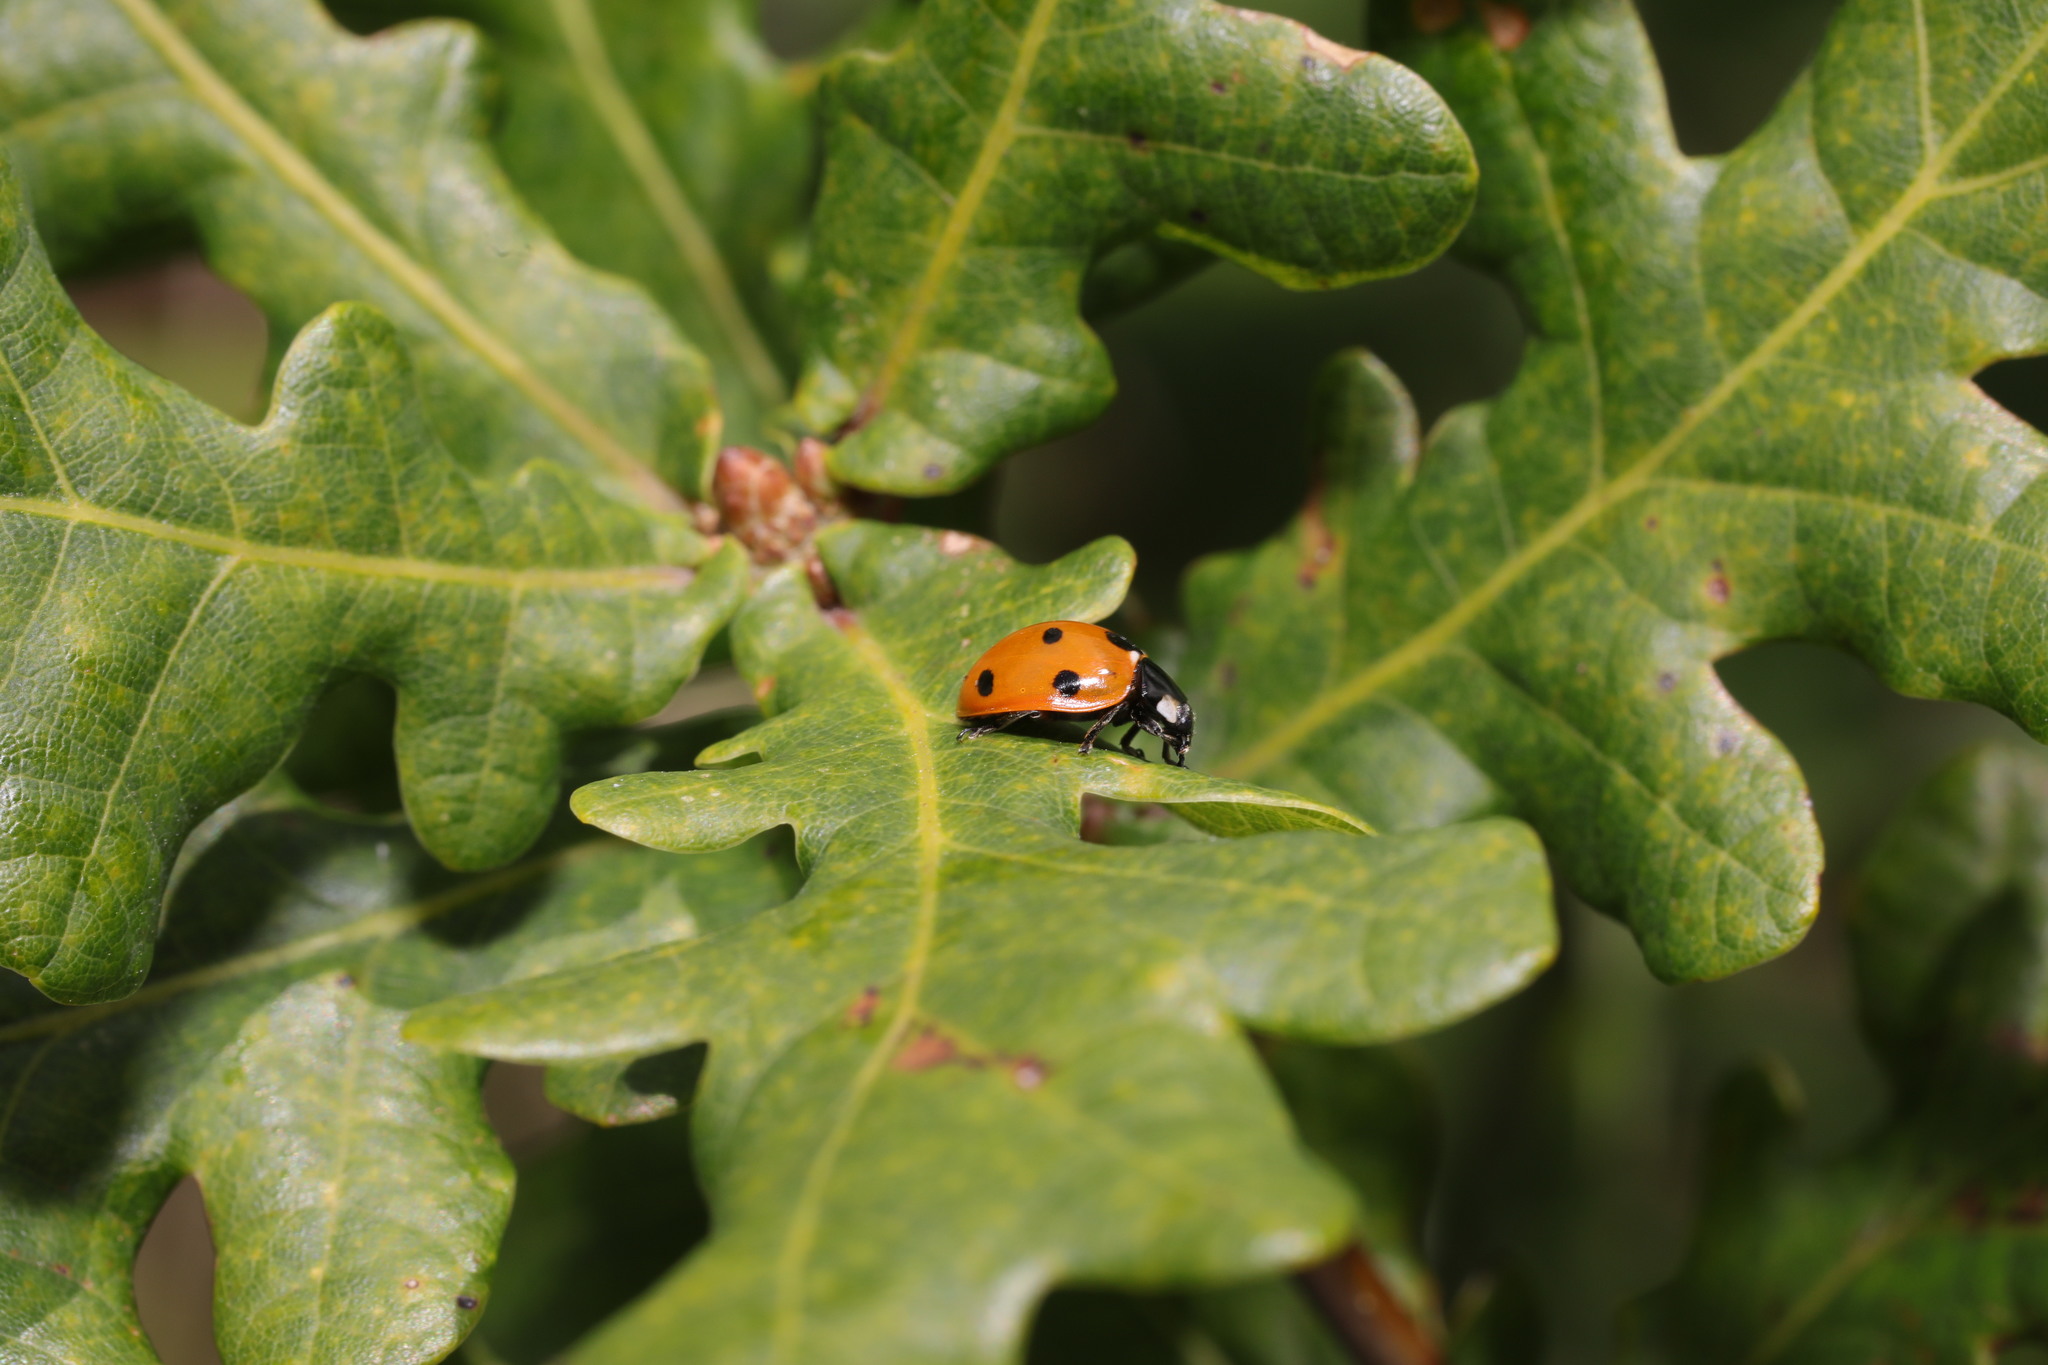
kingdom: Animalia
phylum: Arthropoda
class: Insecta
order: Coleoptera
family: Coccinellidae
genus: Coccinella
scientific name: Coccinella septempunctata
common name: Sevenspotted lady beetle
